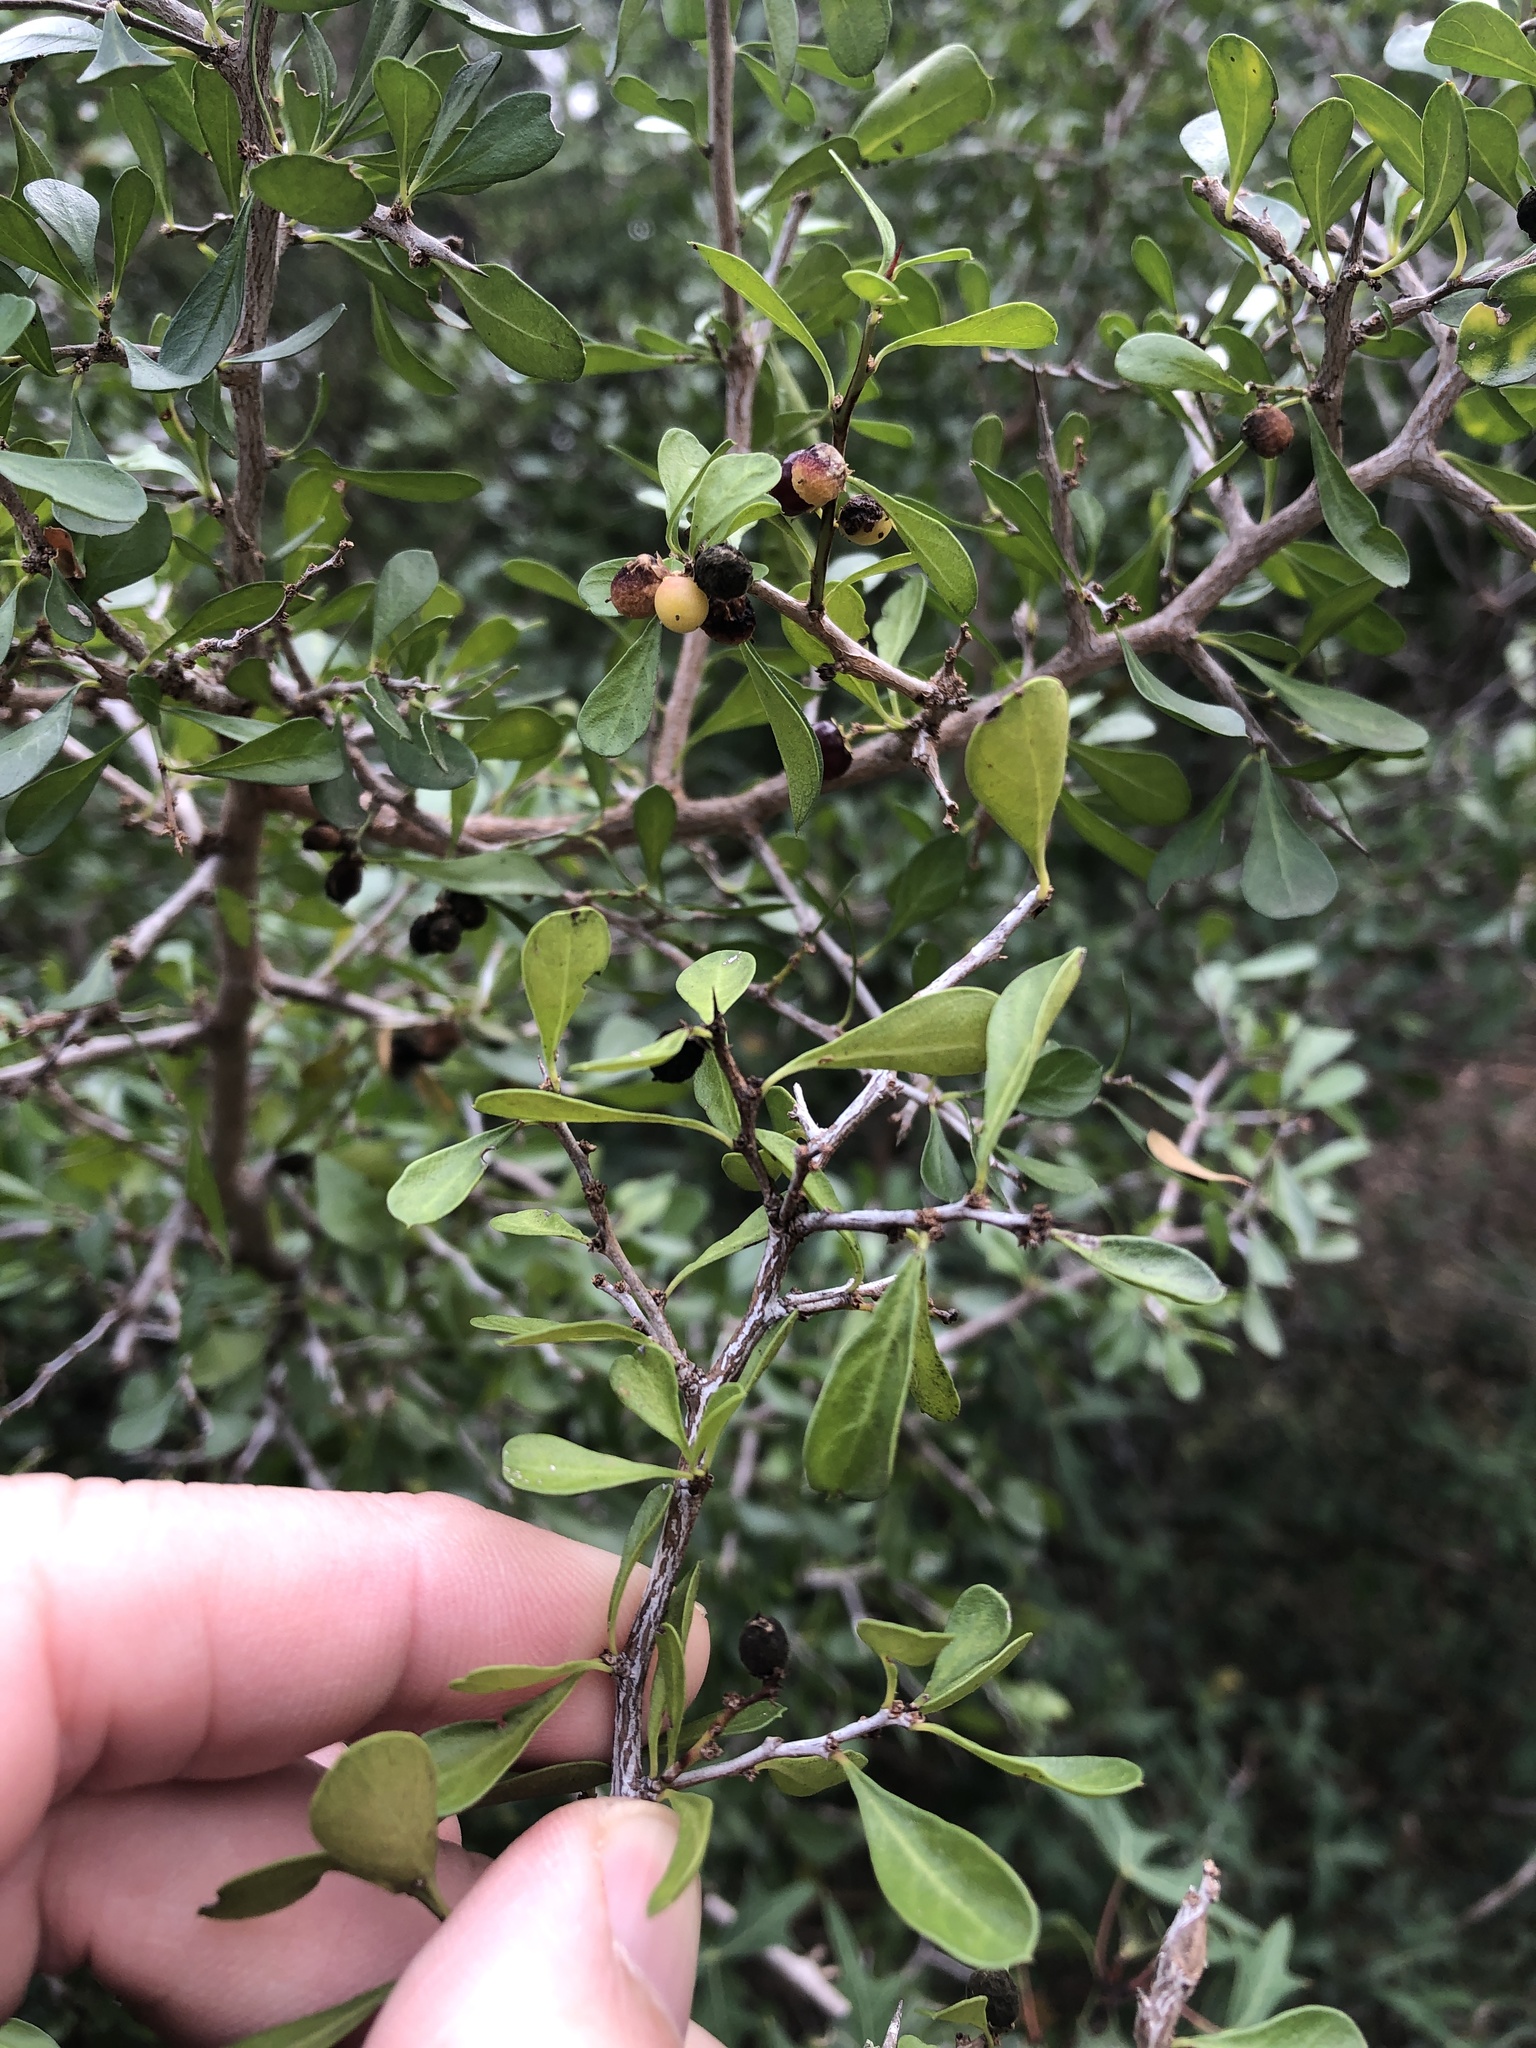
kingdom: Plantae
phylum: Tracheophyta
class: Magnoliopsida
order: Rosales
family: Rhamnaceae
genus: Condalia
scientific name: Condalia hookeri
